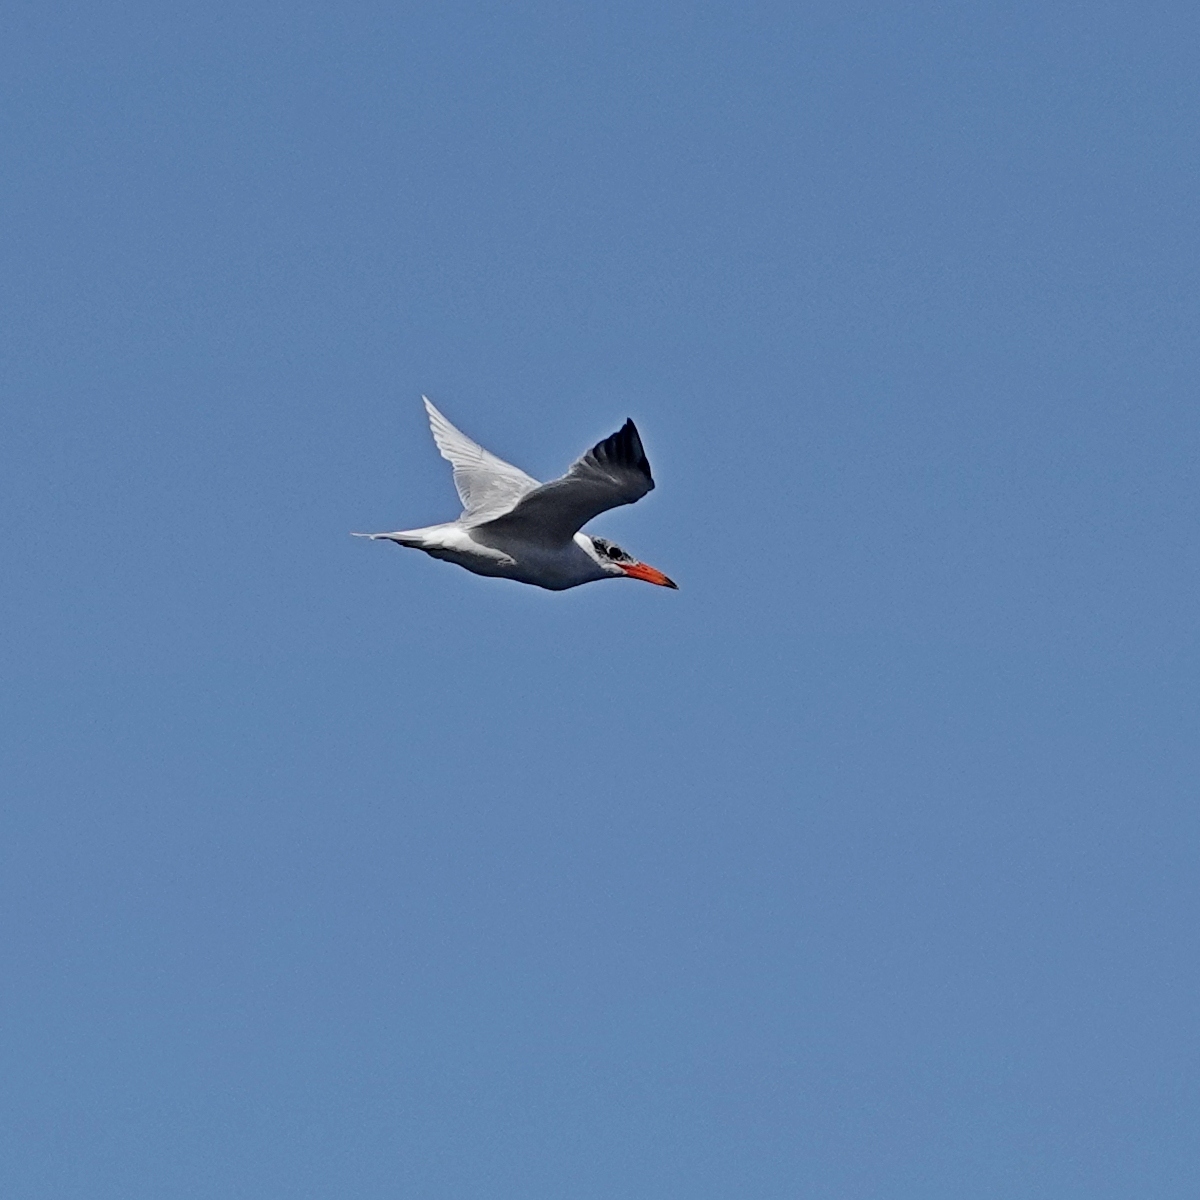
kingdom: Animalia
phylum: Chordata
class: Aves
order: Charadriiformes
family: Laridae
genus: Hydroprogne
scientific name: Hydroprogne caspia
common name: Caspian tern
